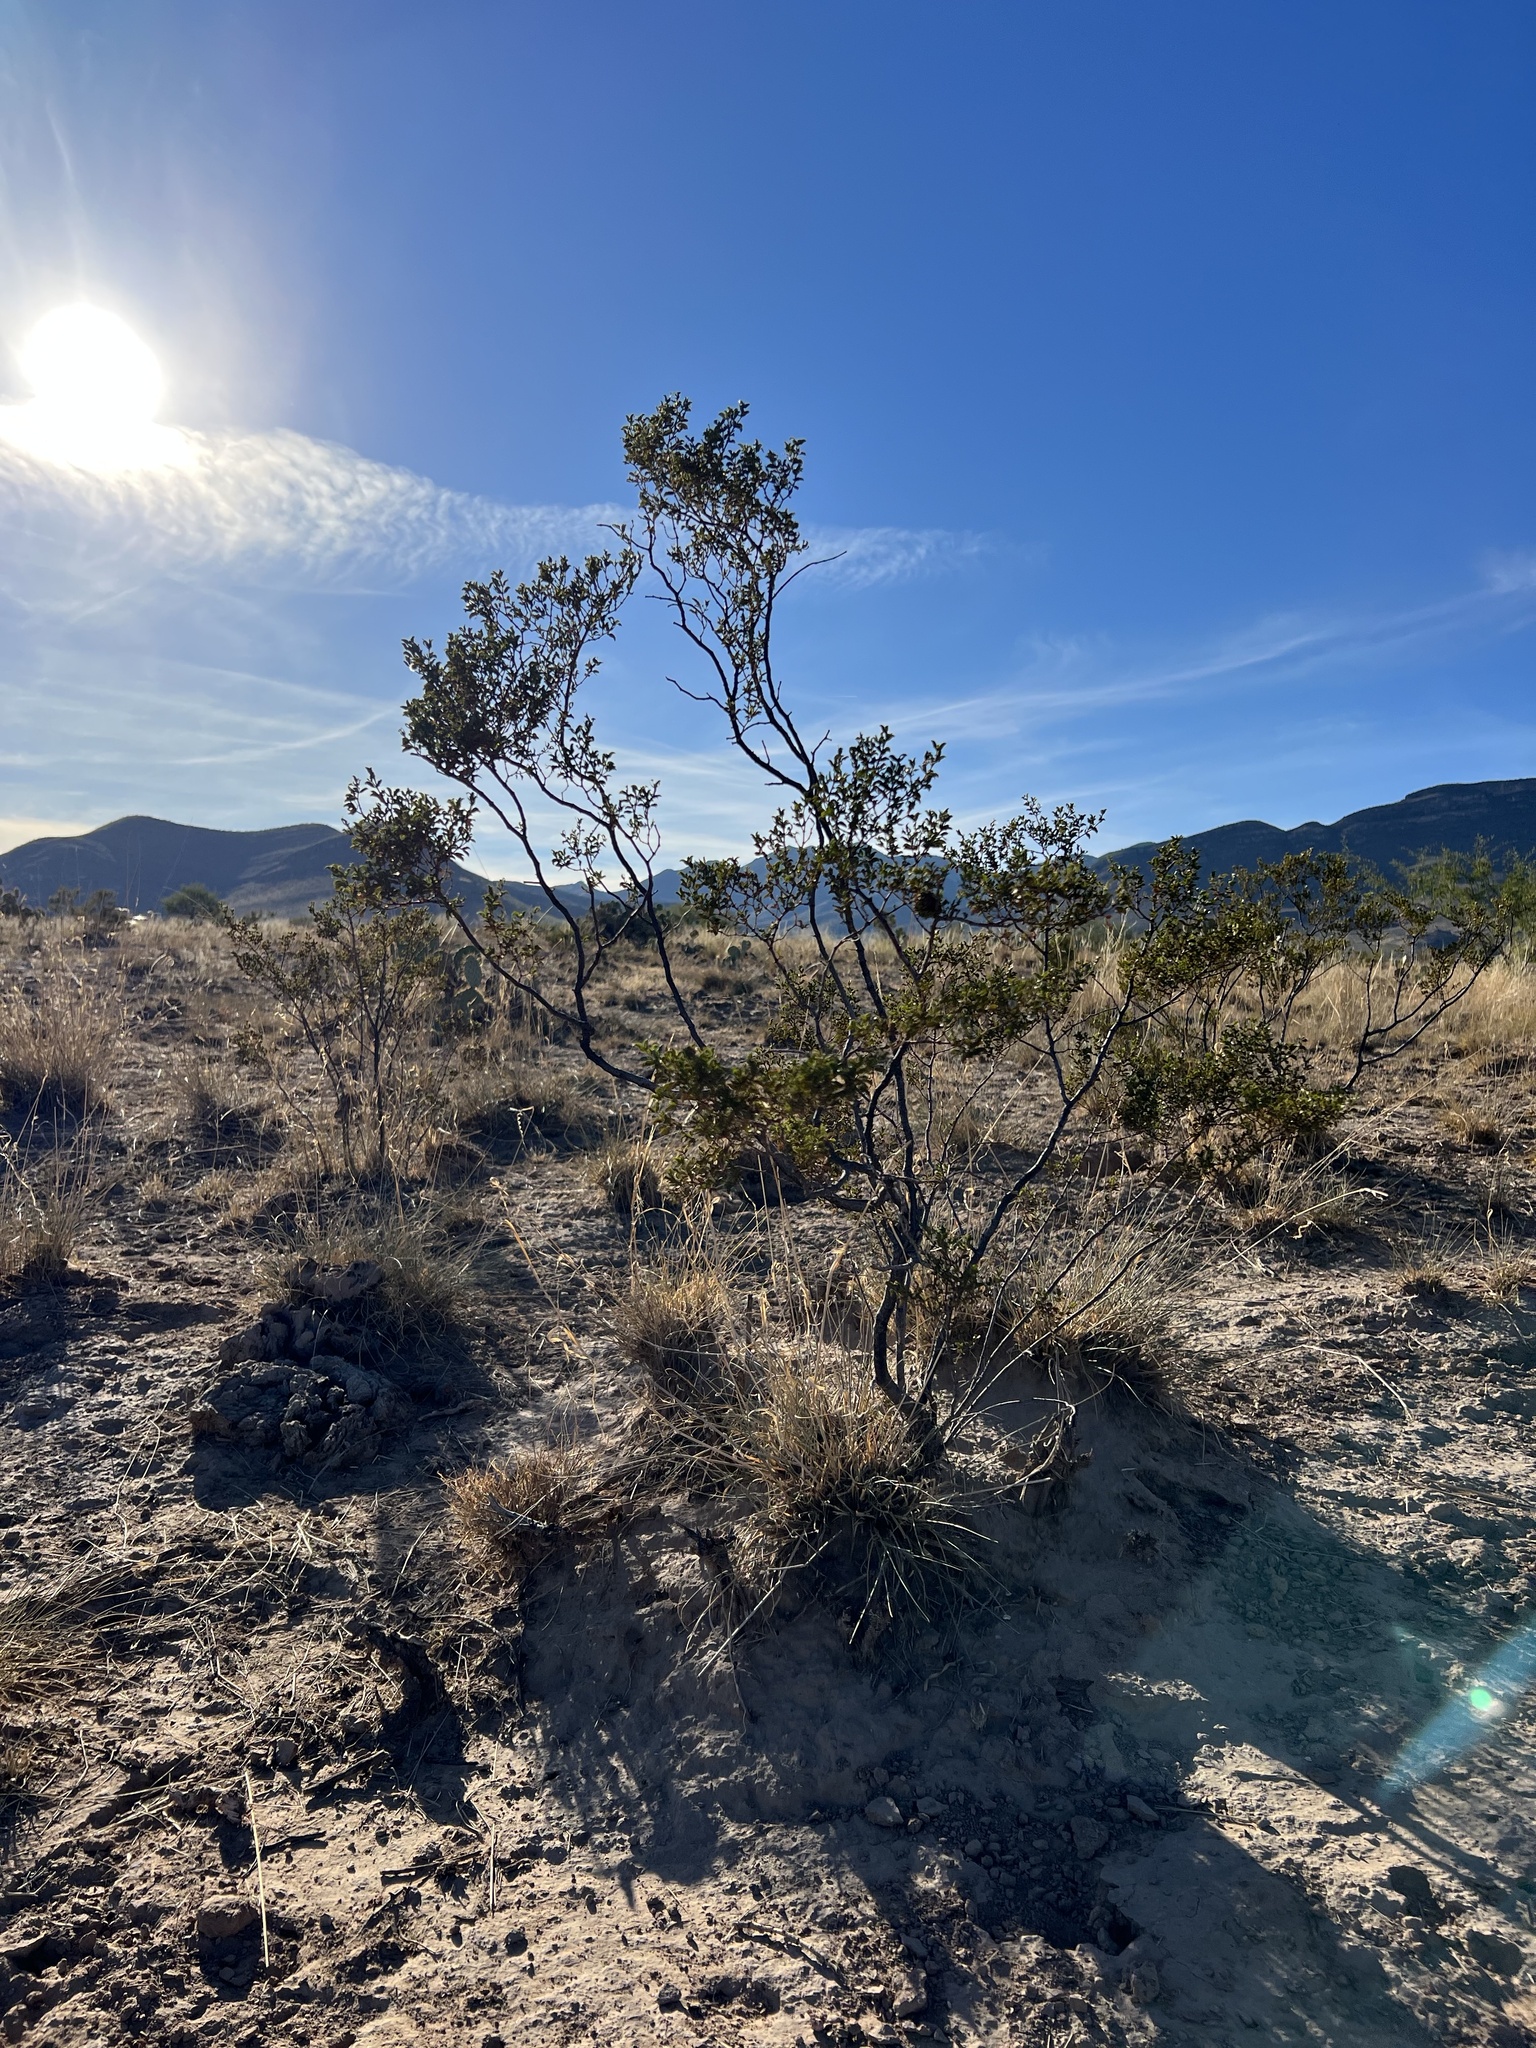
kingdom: Plantae
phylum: Tracheophyta
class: Magnoliopsida
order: Zygophyllales
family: Zygophyllaceae
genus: Larrea
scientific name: Larrea tridentata
